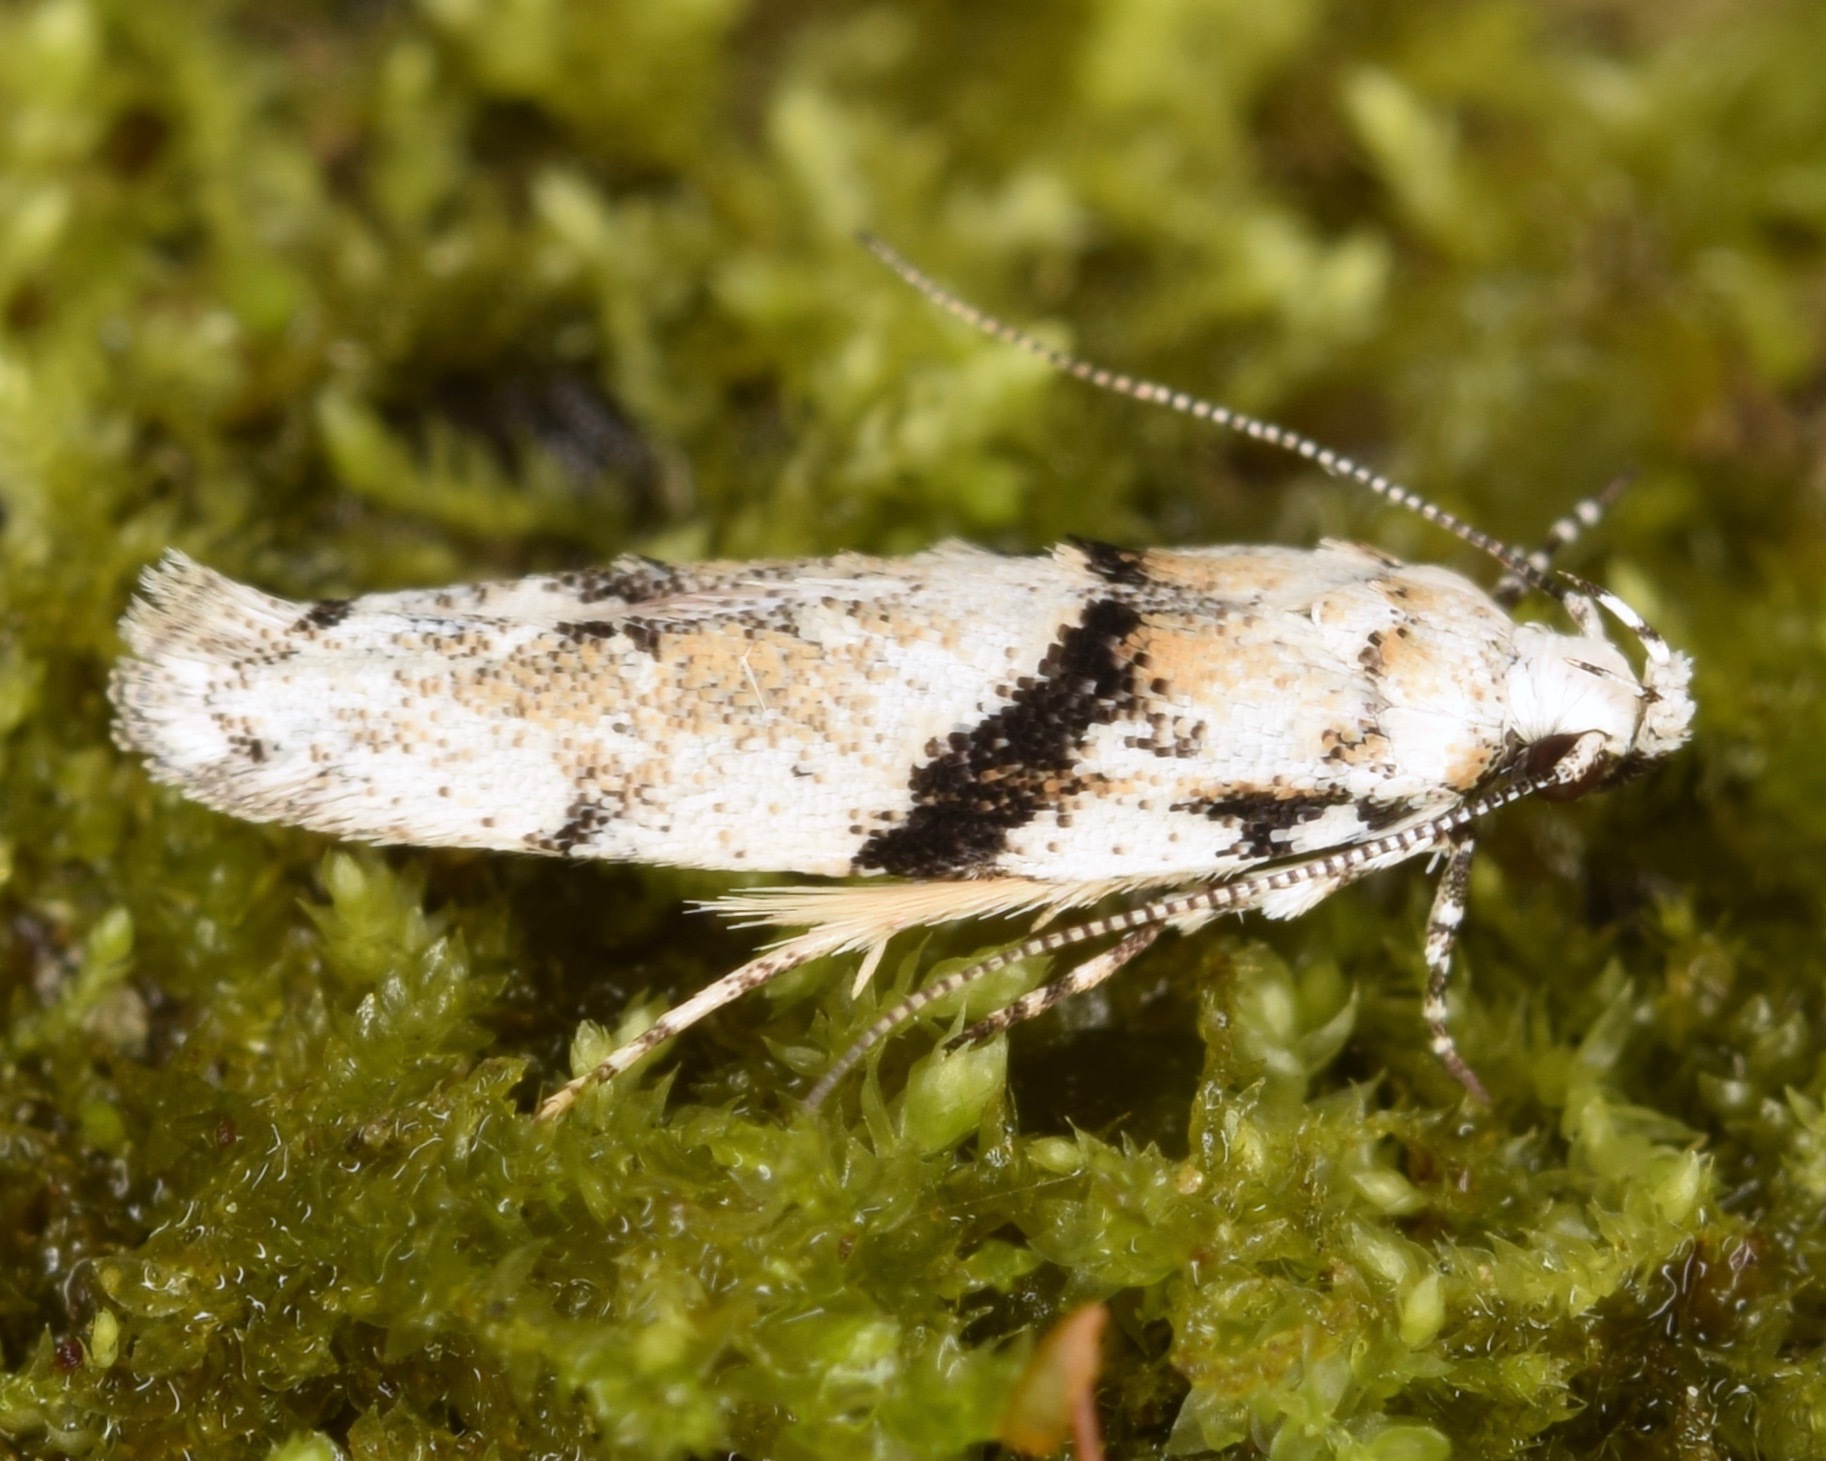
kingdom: Animalia
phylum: Arthropoda
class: Insecta
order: Lepidoptera
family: Gelechiidae
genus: Arogalea
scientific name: Arogalea cristifasciella
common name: White stripe-backed moth
